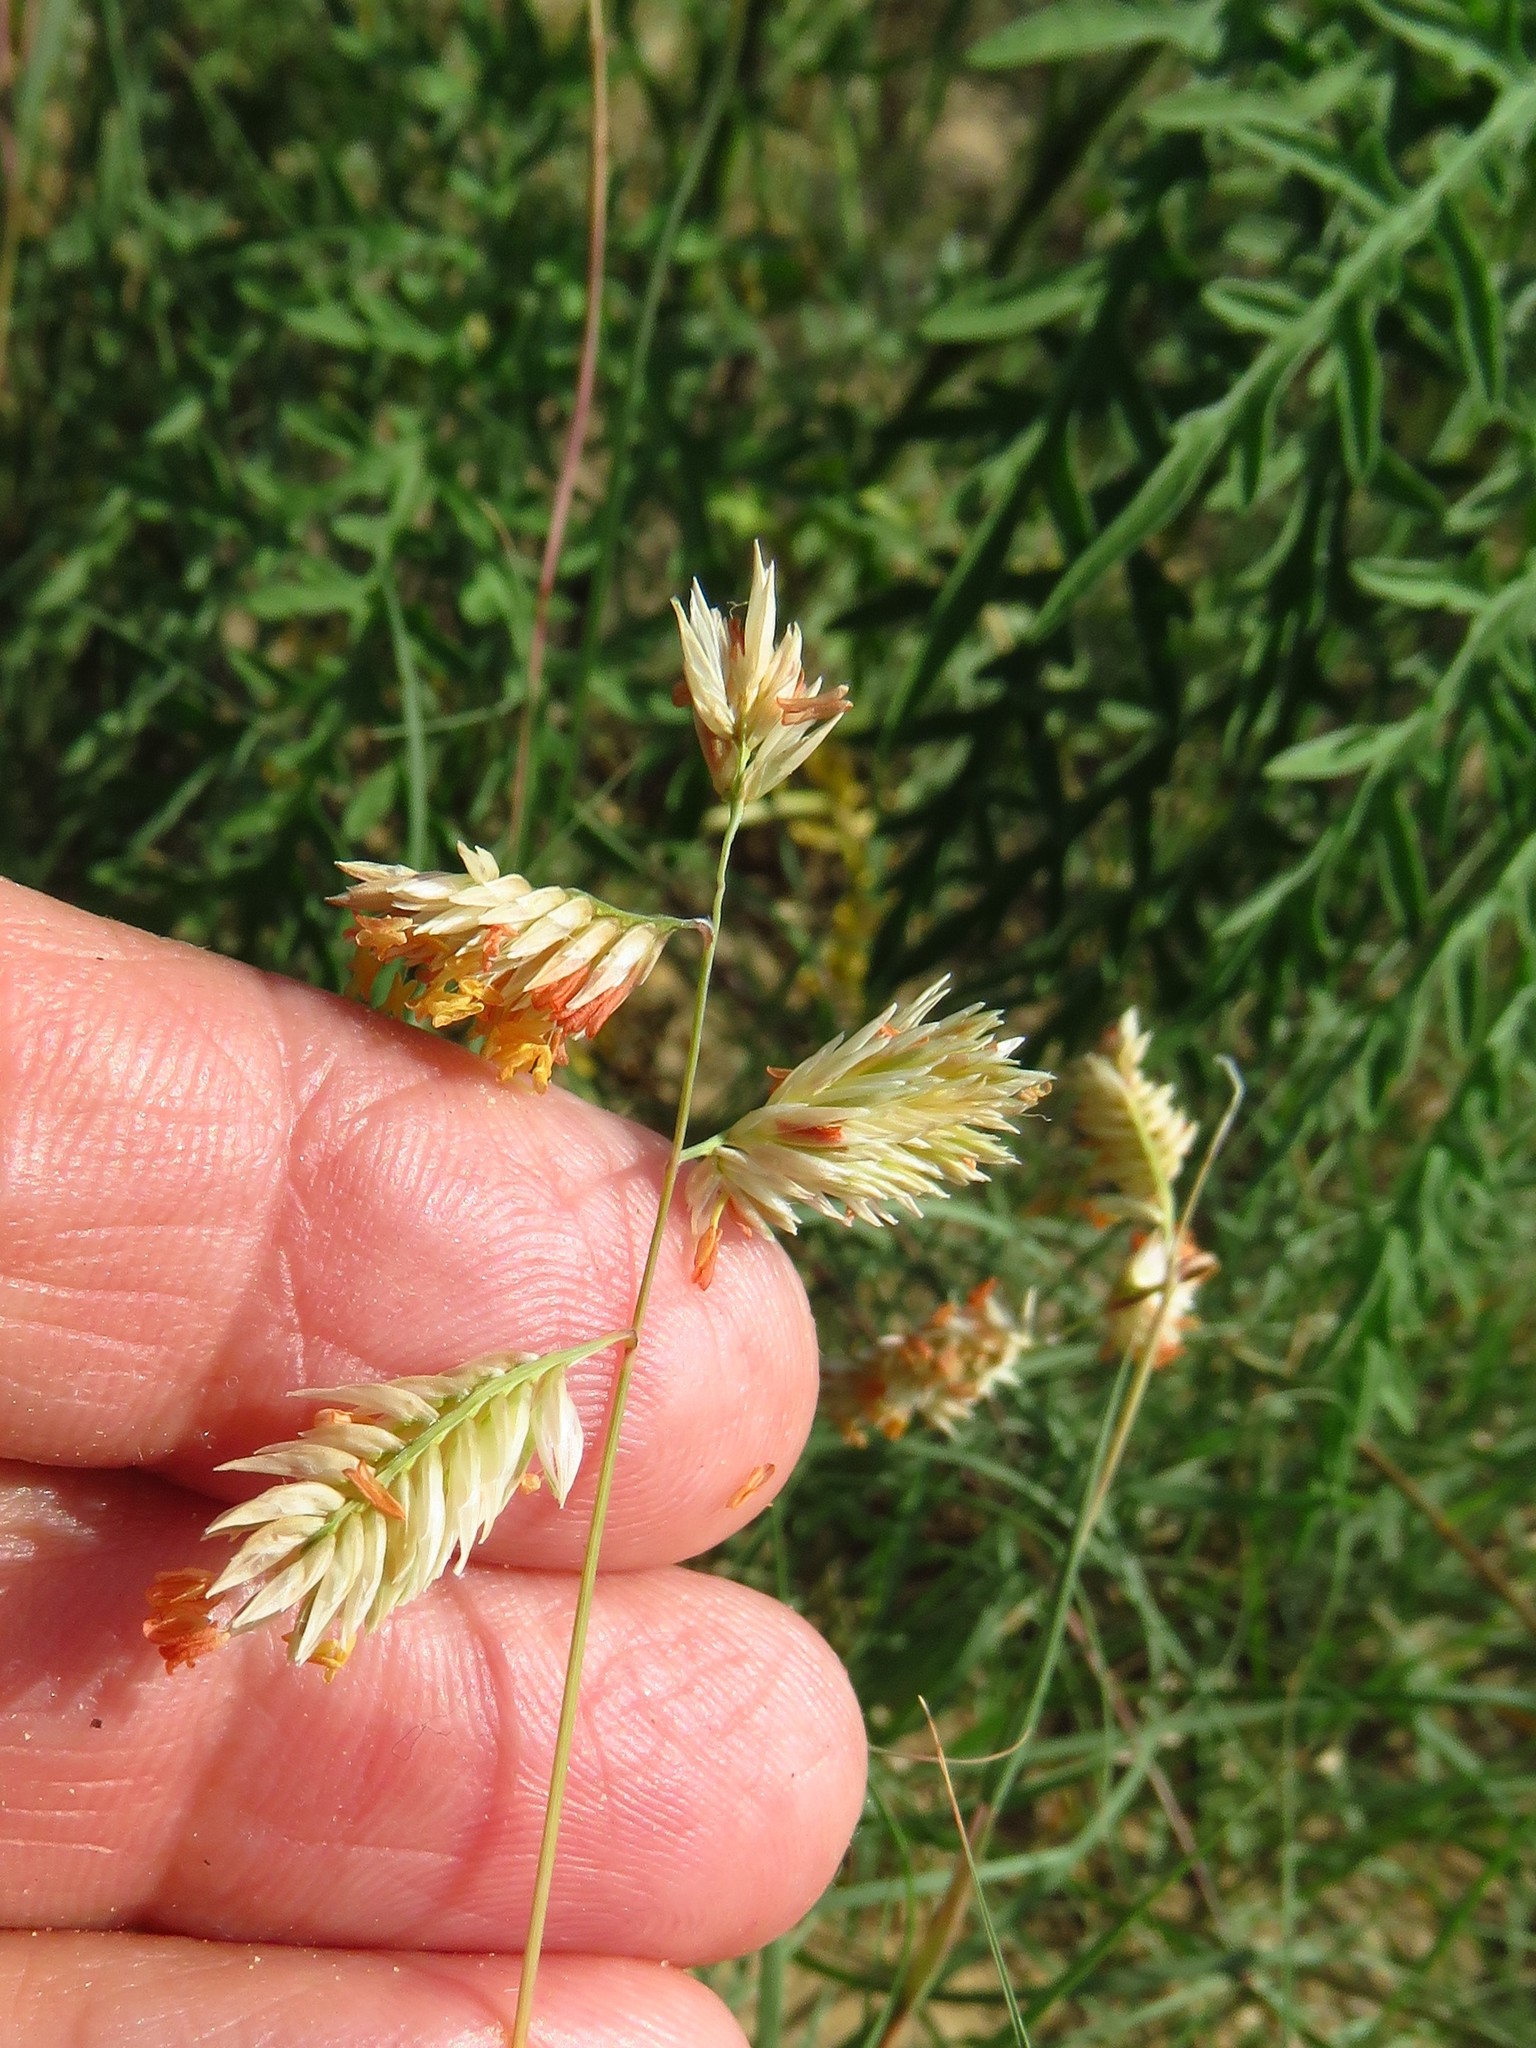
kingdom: Plantae
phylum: Tracheophyta
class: Liliopsida
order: Poales
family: Poaceae
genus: Bouteloua
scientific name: Bouteloua dactyloides
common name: Buffalo grass
